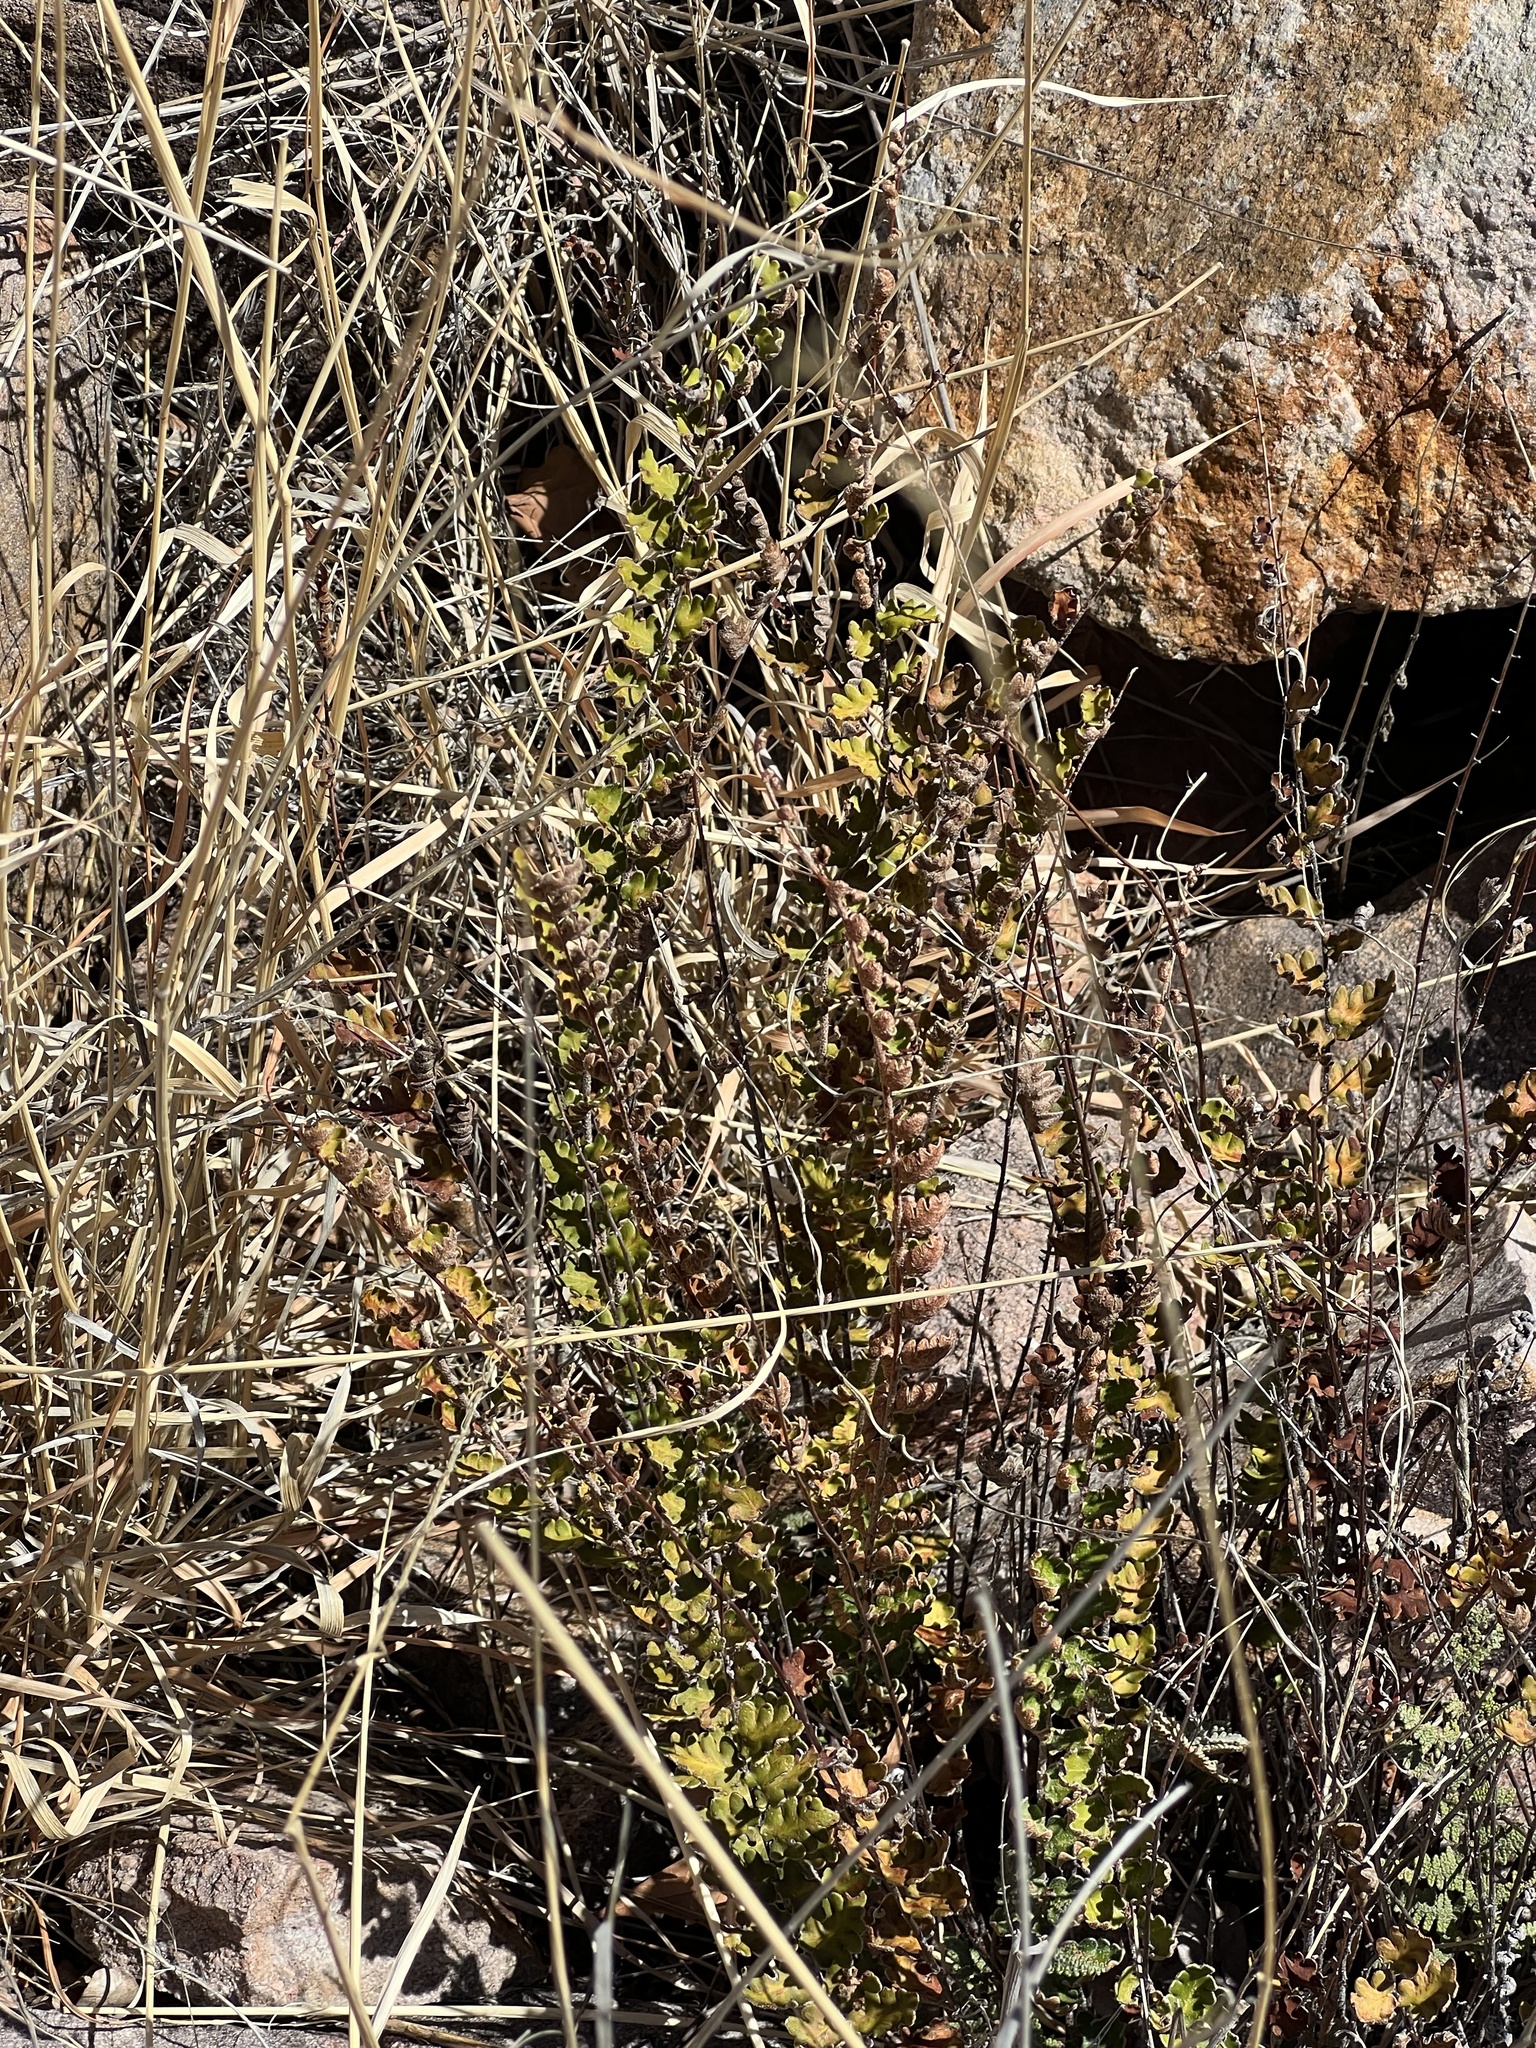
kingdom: Plantae
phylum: Tracheophyta
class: Polypodiopsida
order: Polypodiales
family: Pteridaceae
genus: Astrolepis
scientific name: Astrolepis sinuata
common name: Wavy scaly cloakfern
